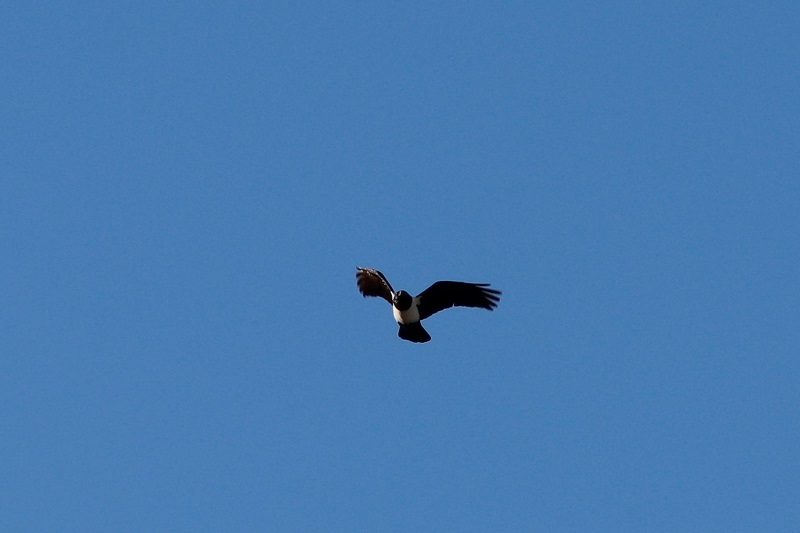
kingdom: Animalia
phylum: Chordata
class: Aves
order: Passeriformes
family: Corvidae
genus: Corvus
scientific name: Corvus albus
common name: Pied crow
